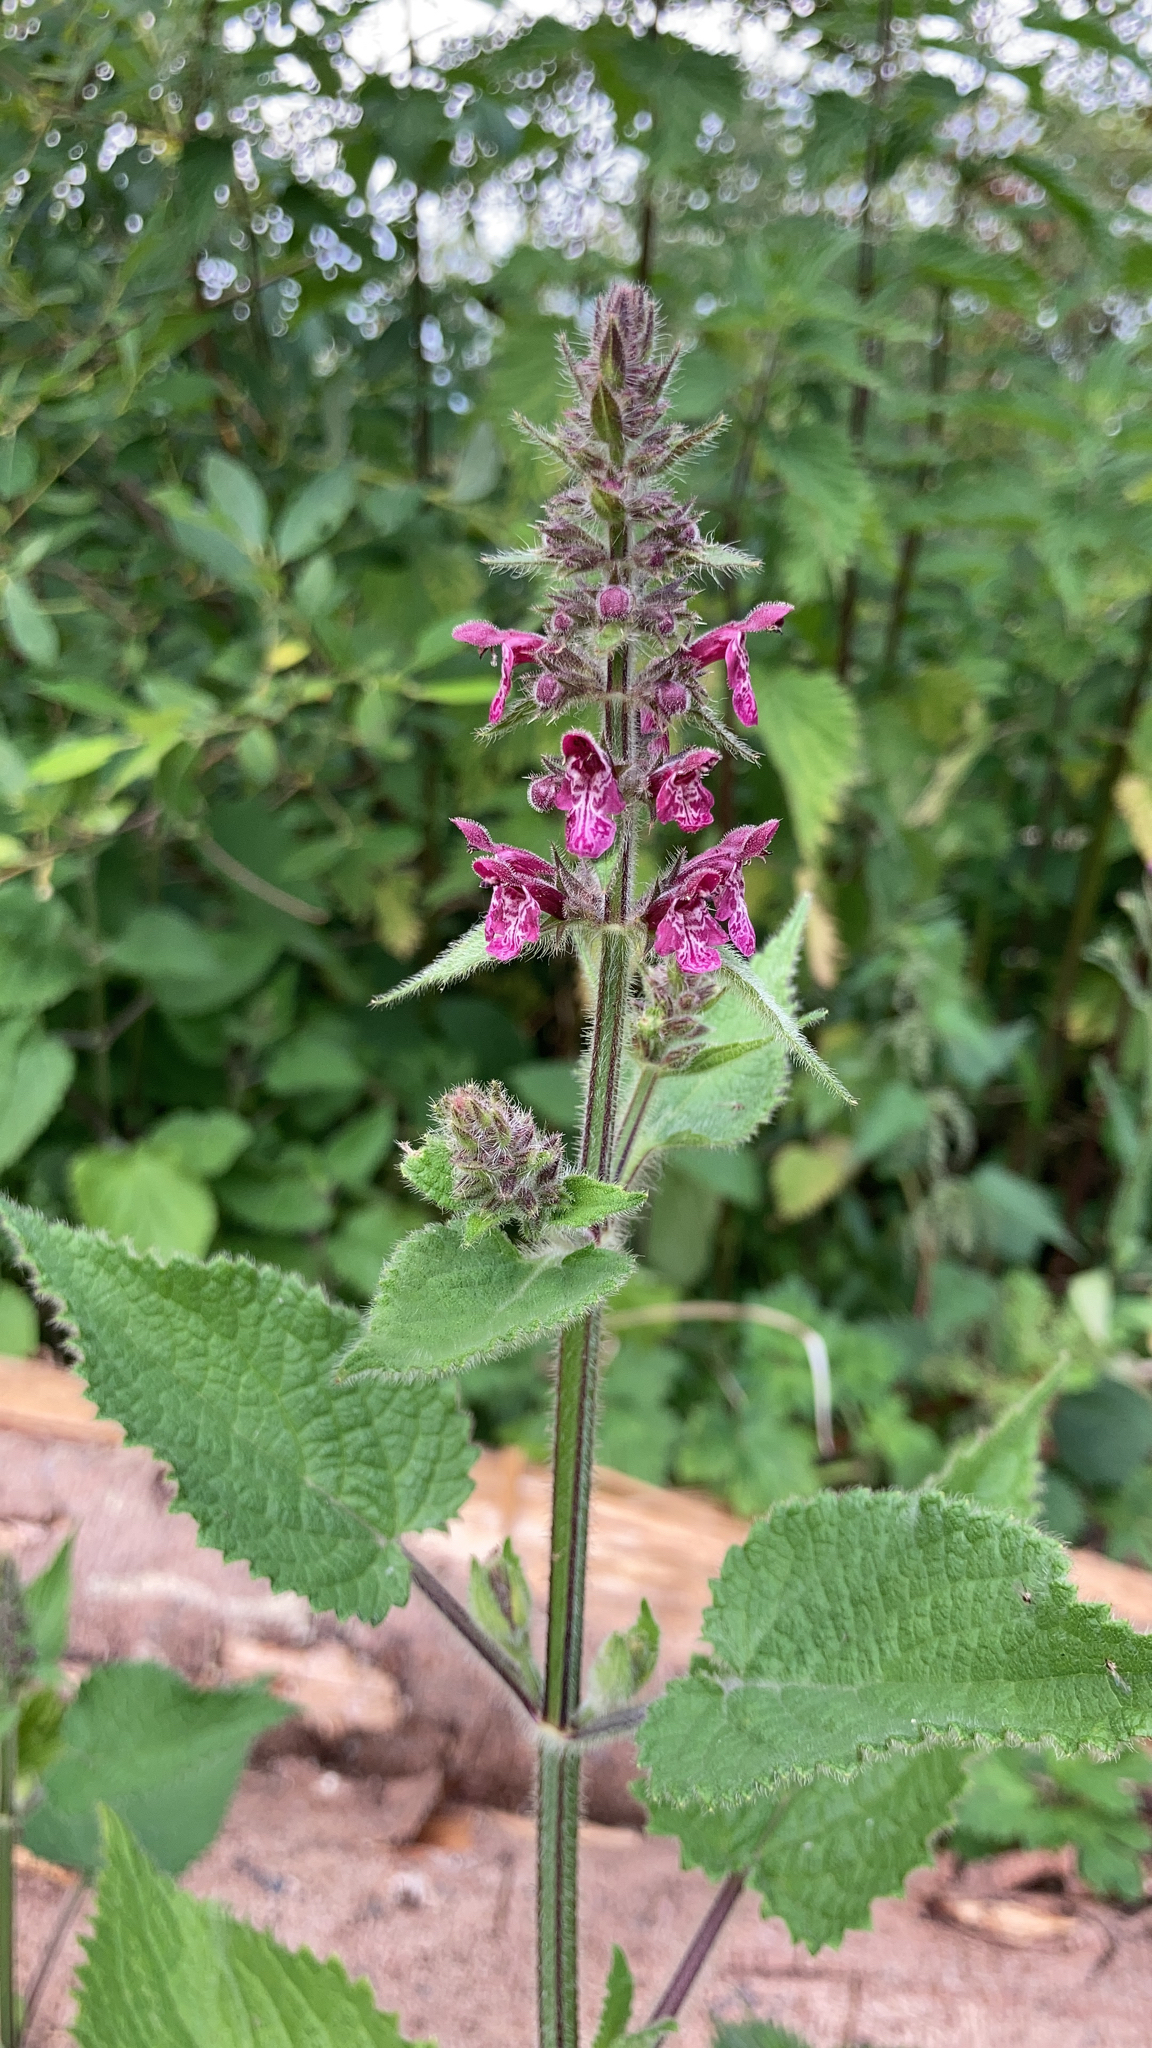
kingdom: Plantae
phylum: Tracheophyta
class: Magnoliopsida
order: Lamiales
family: Lamiaceae
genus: Stachys
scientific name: Stachys sylvatica
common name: Hedge woundwort
